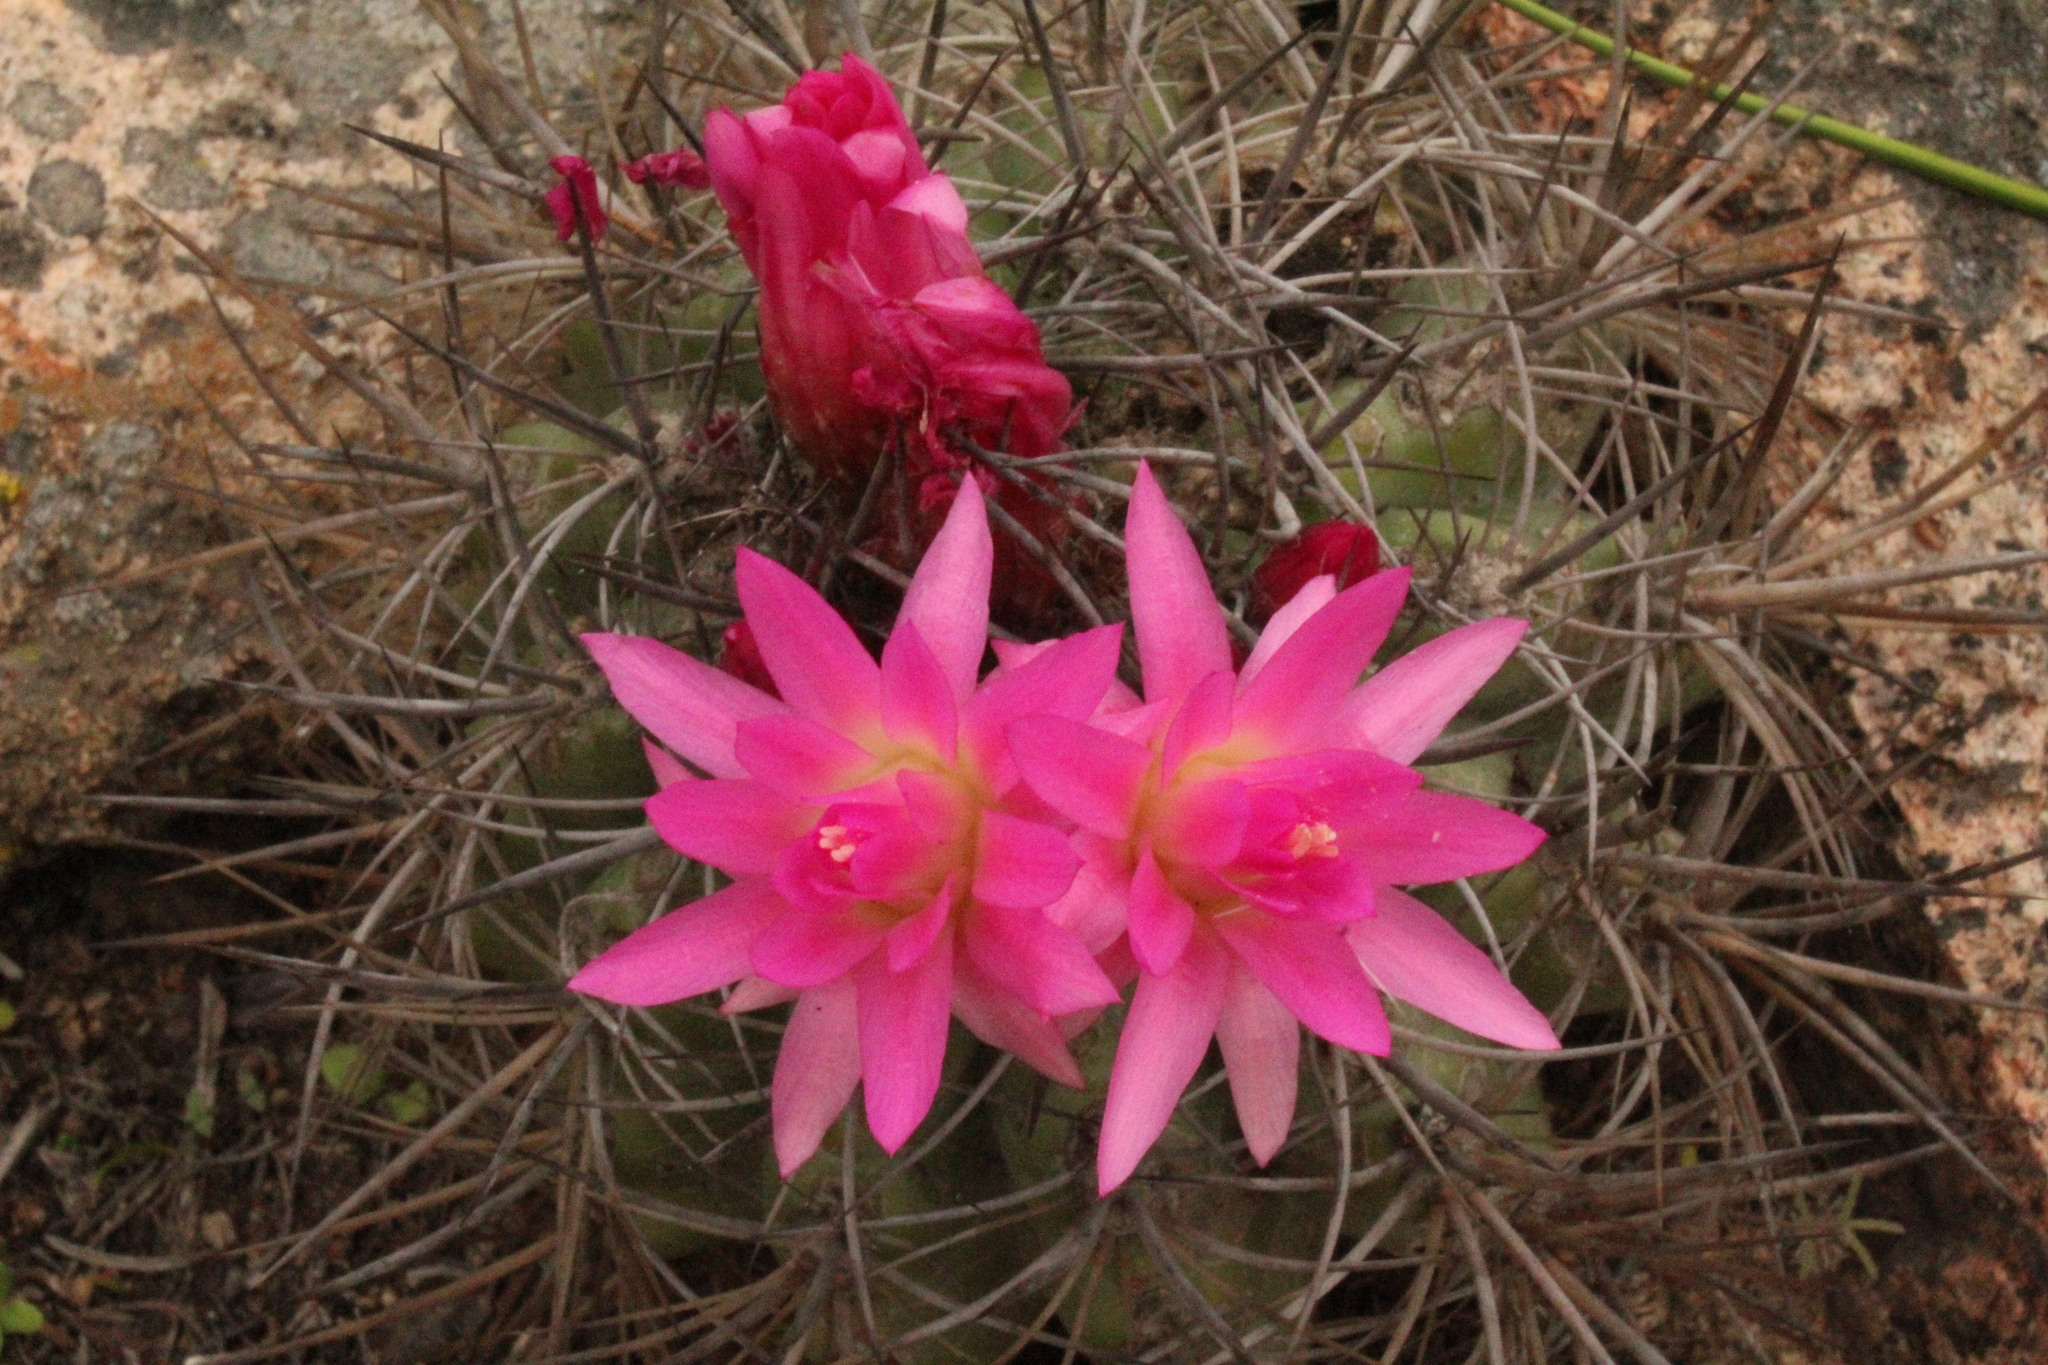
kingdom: Plantae
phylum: Tracheophyta
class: Magnoliopsida
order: Caryophyllales
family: Cactaceae
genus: Eriosyce
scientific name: Eriosyce clavata
